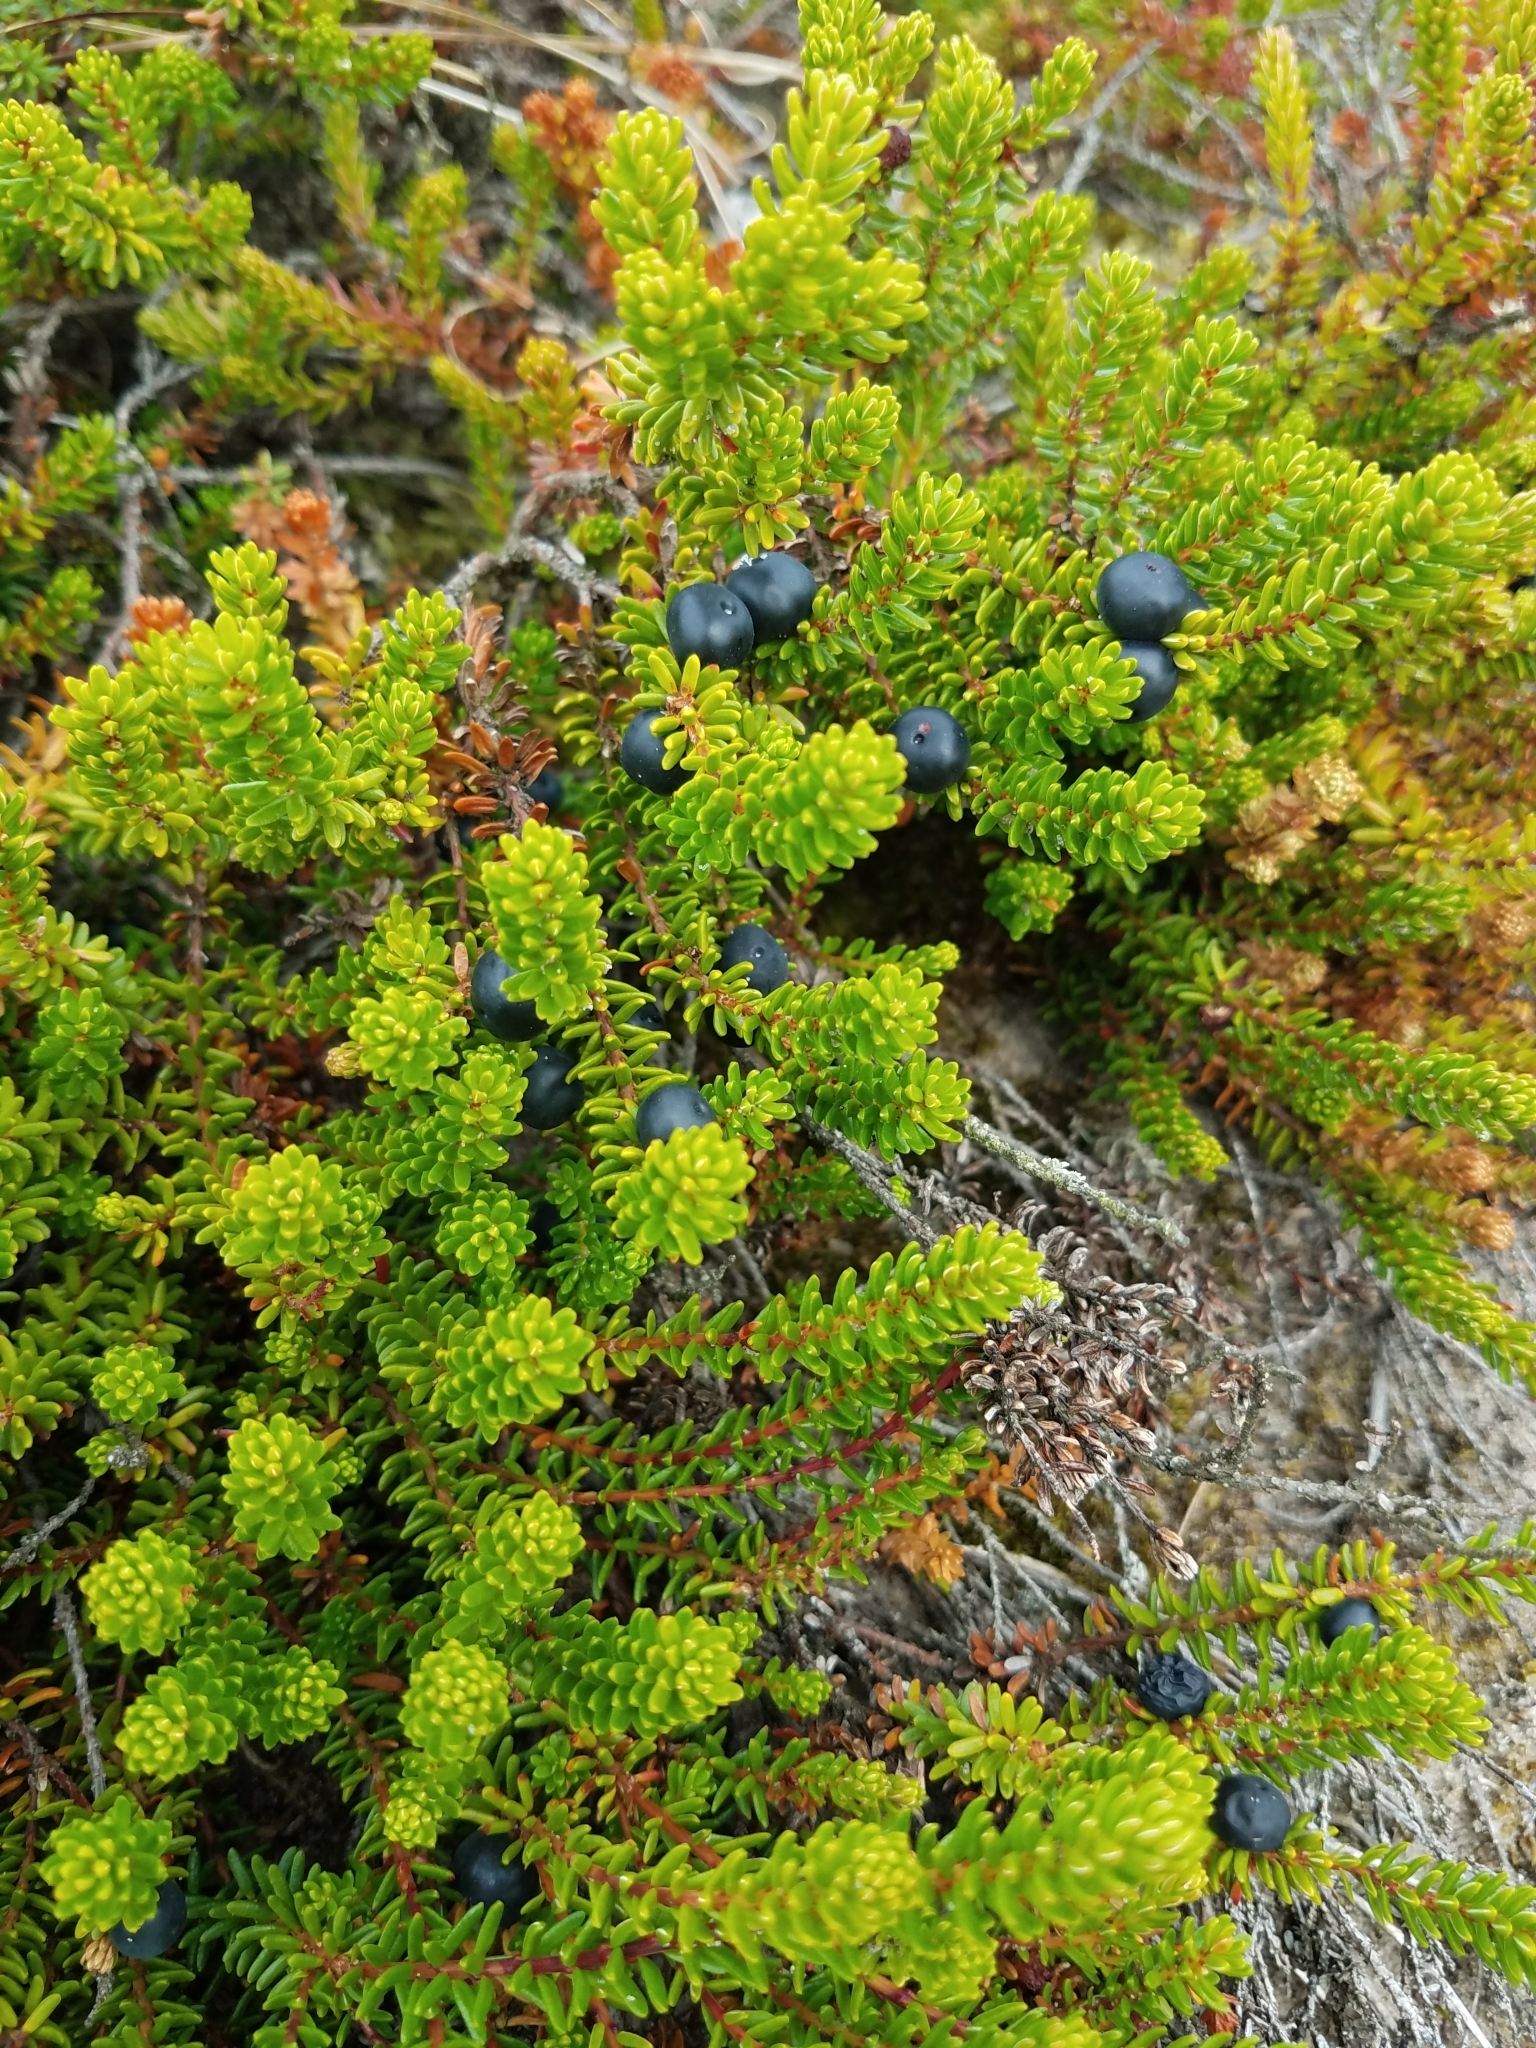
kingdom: Plantae
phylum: Tracheophyta
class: Magnoliopsida
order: Ericales
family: Ericaceae
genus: Empetrum
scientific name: Empetrum nigrum
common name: Black crowberry
